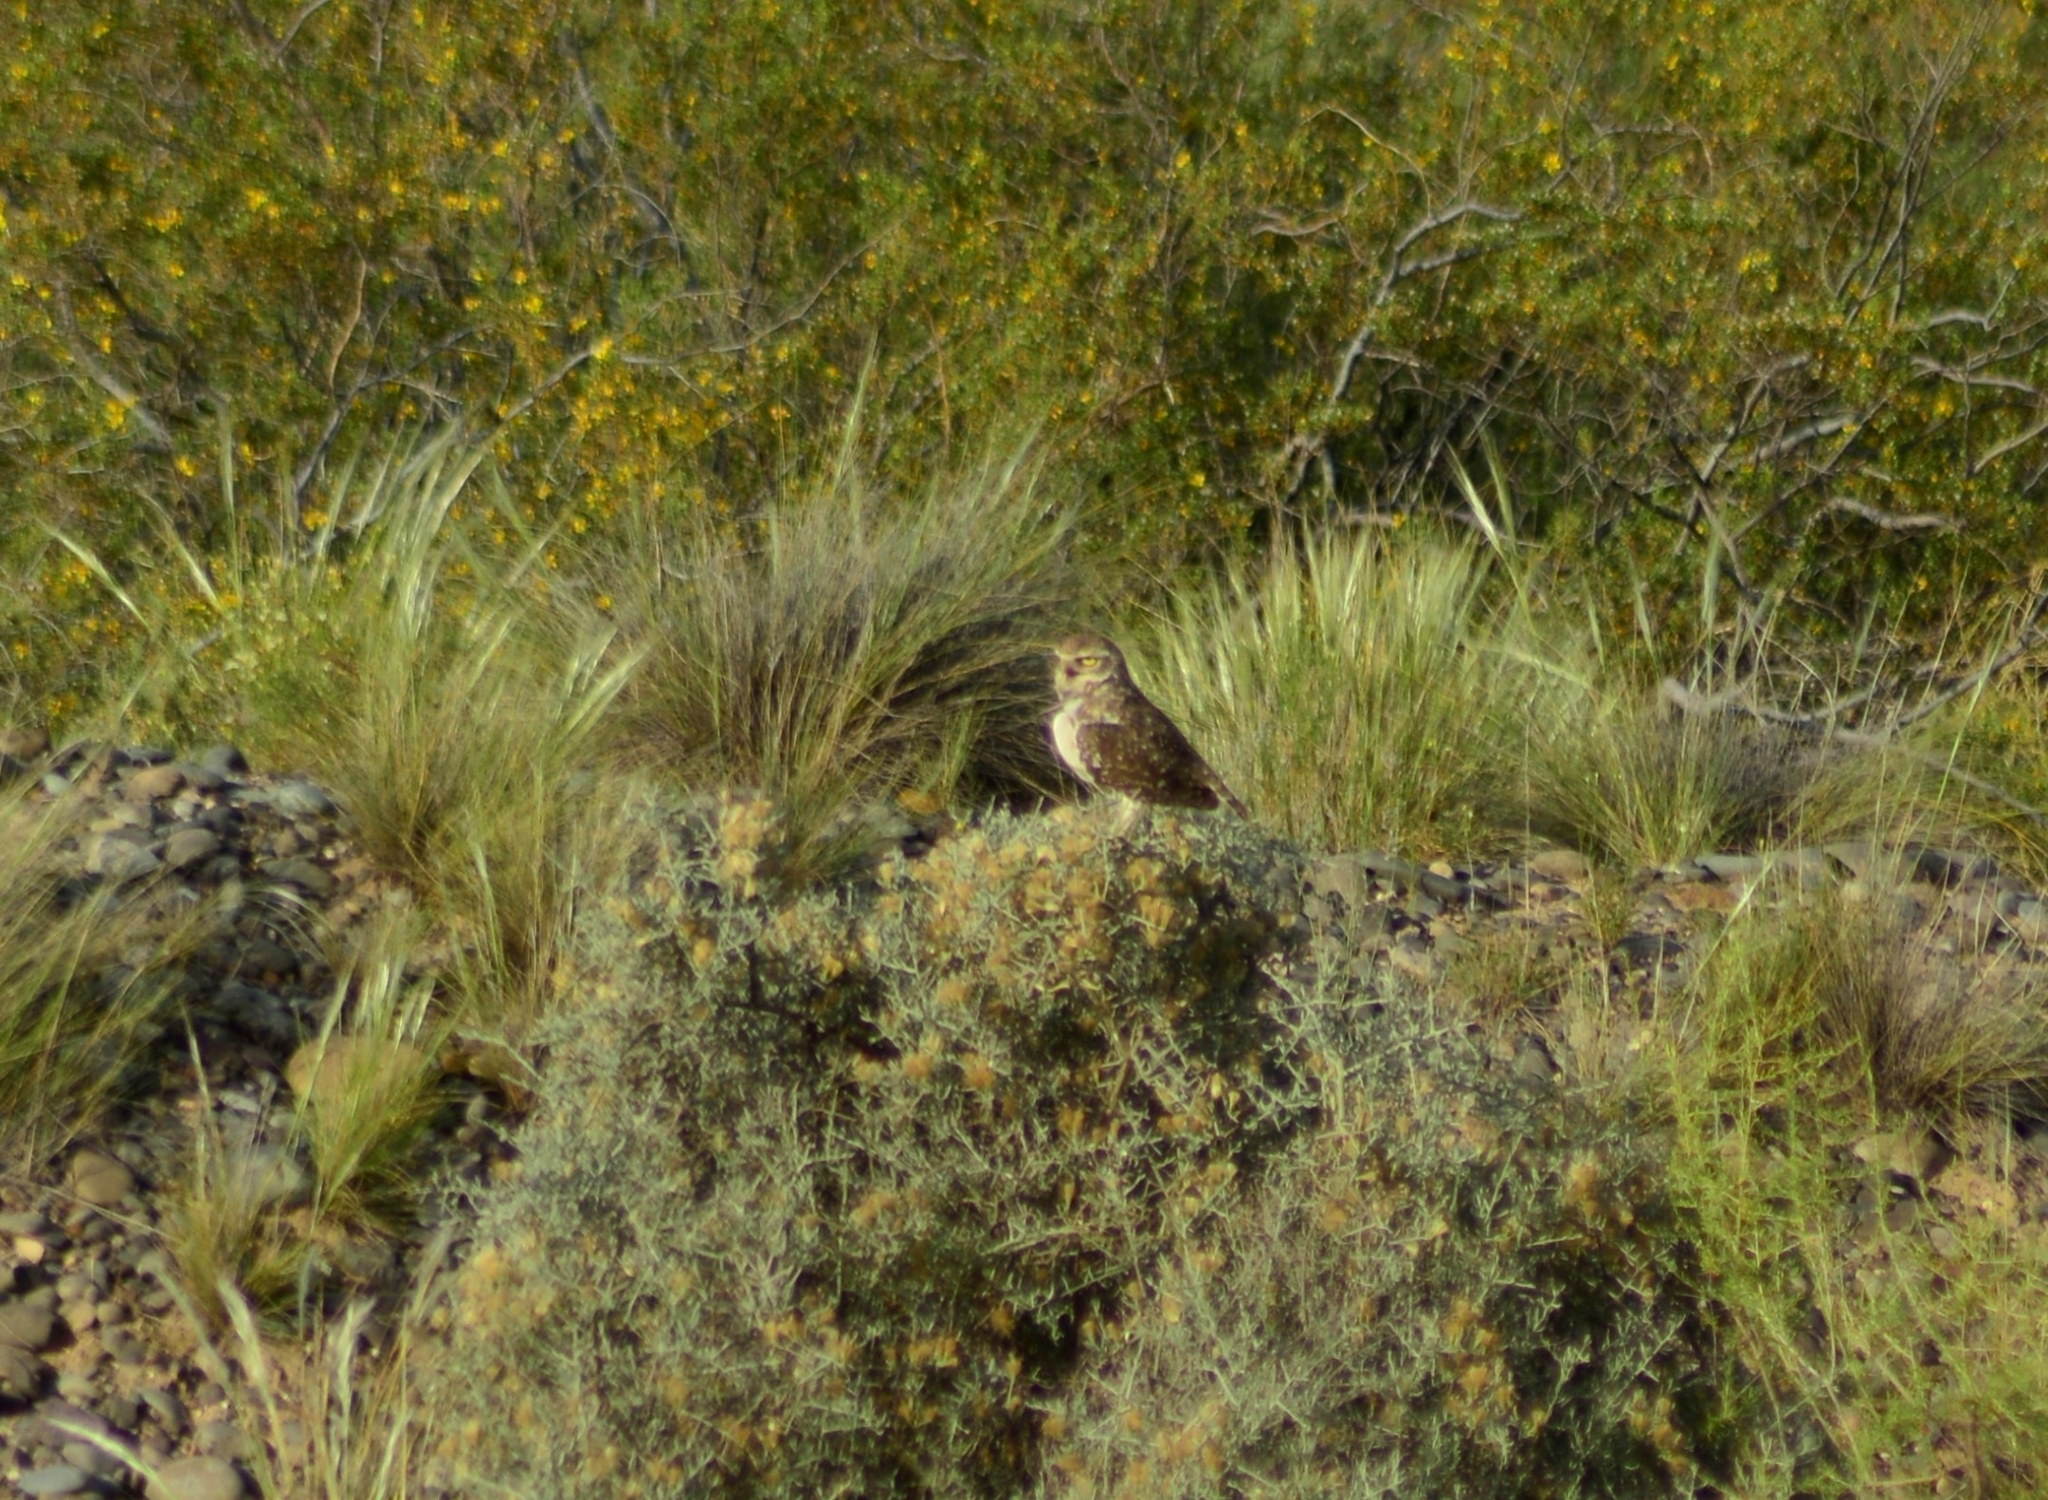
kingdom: Animalia
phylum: Chordata
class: Aves
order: Strigiformes
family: Strigidae
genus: Athene
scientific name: Athene cunicularia
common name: Burrowing owl
